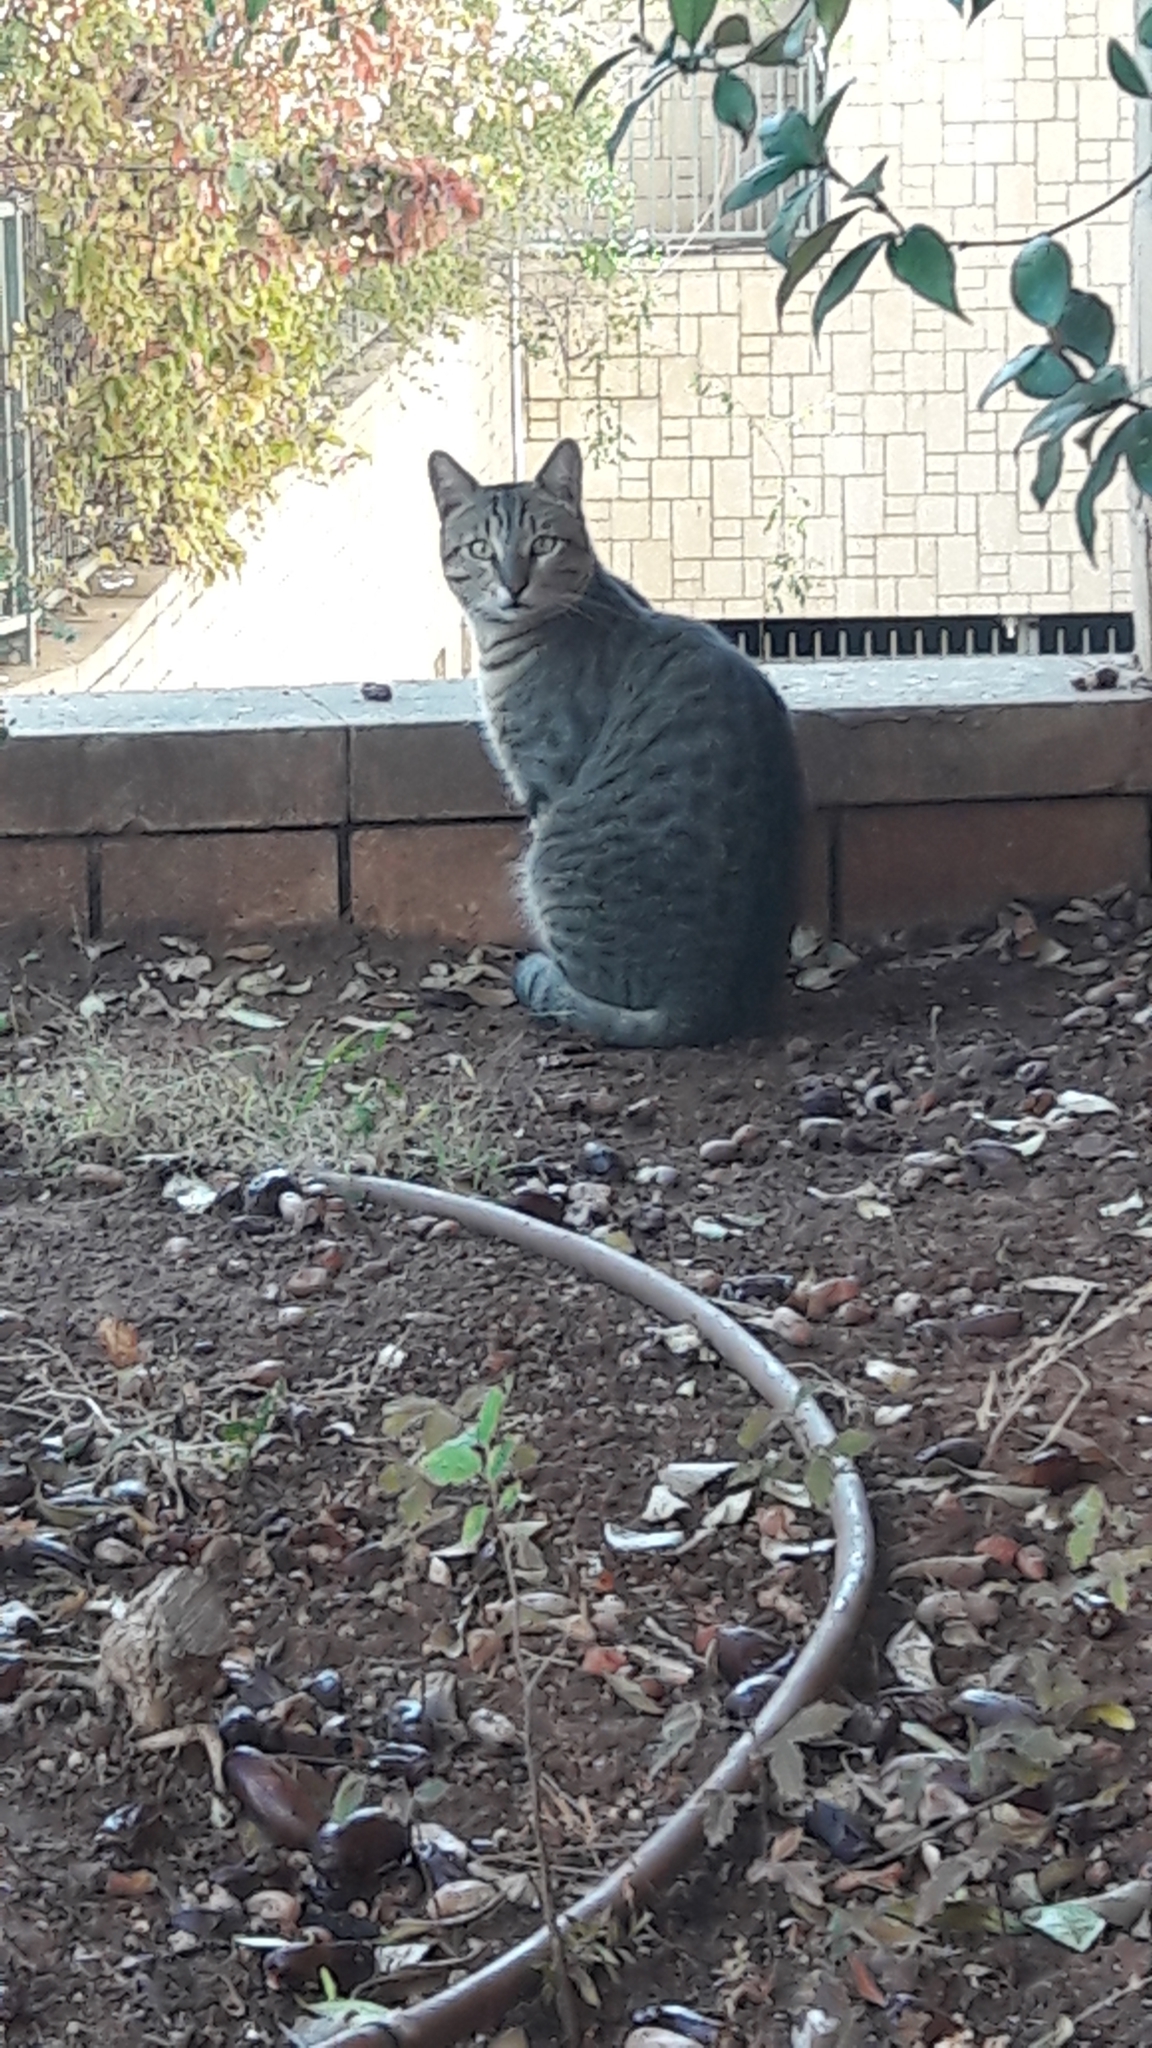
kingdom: Animalia
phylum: Chordata
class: Mammalia
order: Carnivora
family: Felidae
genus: Felis
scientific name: Felis catus
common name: Domestic cat
